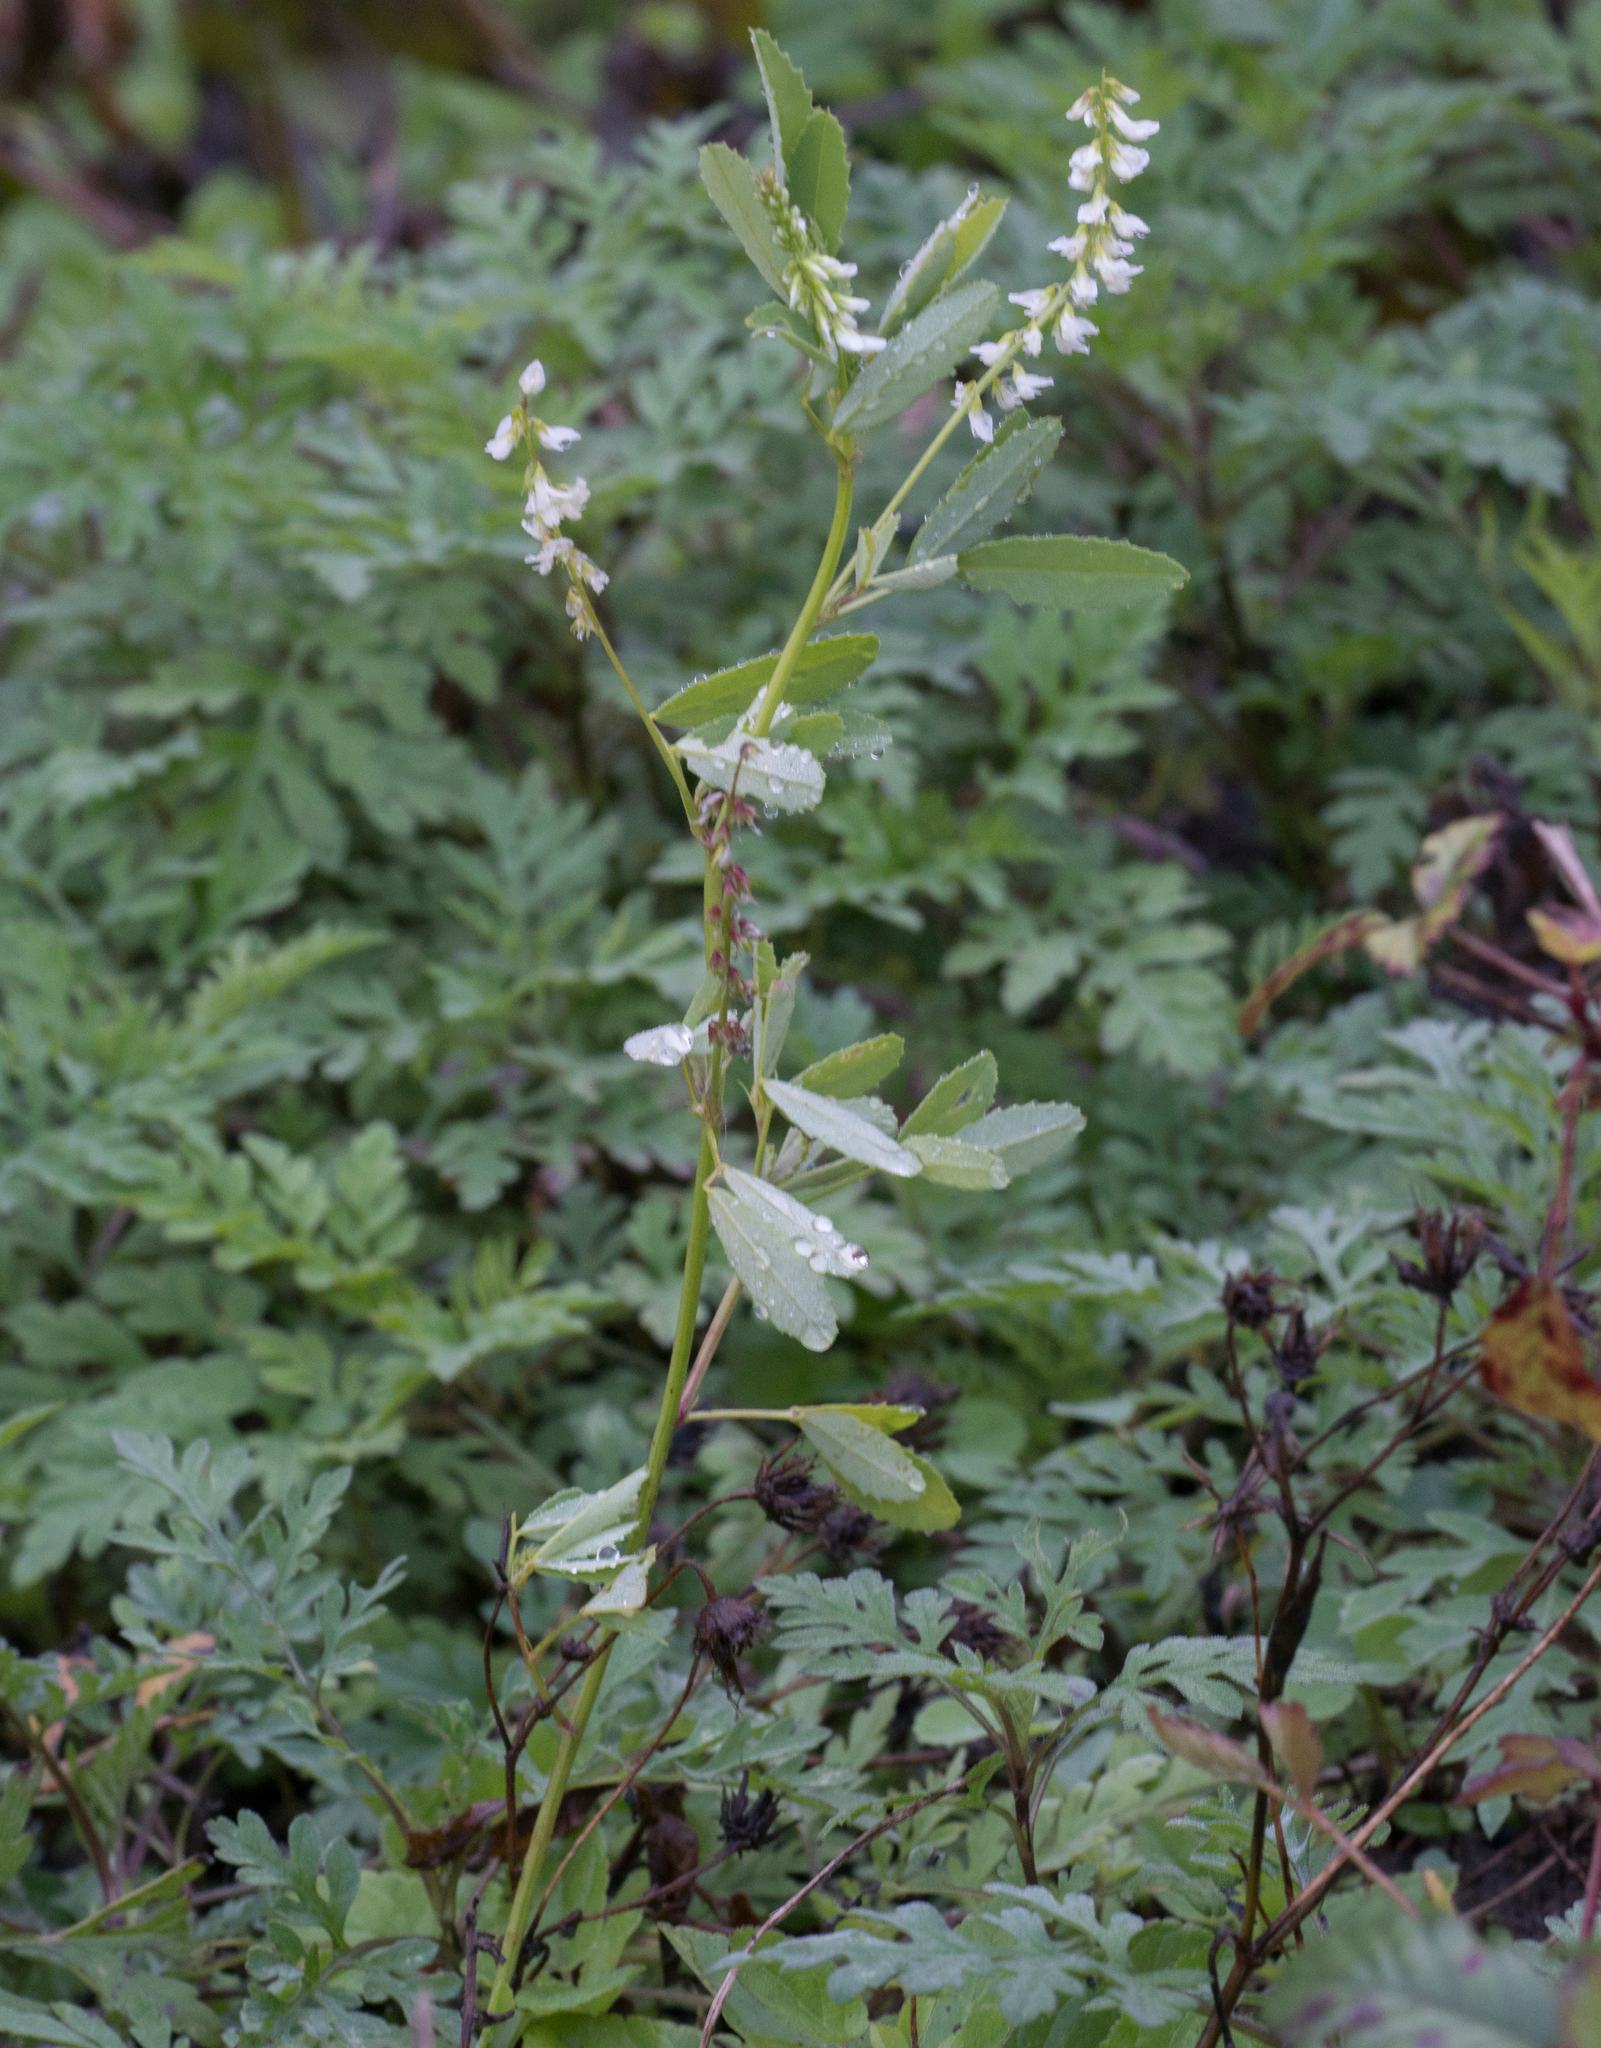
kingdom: Plantae
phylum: Tracheophyta
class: Magnoliopsida
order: Fabales
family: Fabaceae
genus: Melilotus
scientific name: Melilotus albus
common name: White melilot
